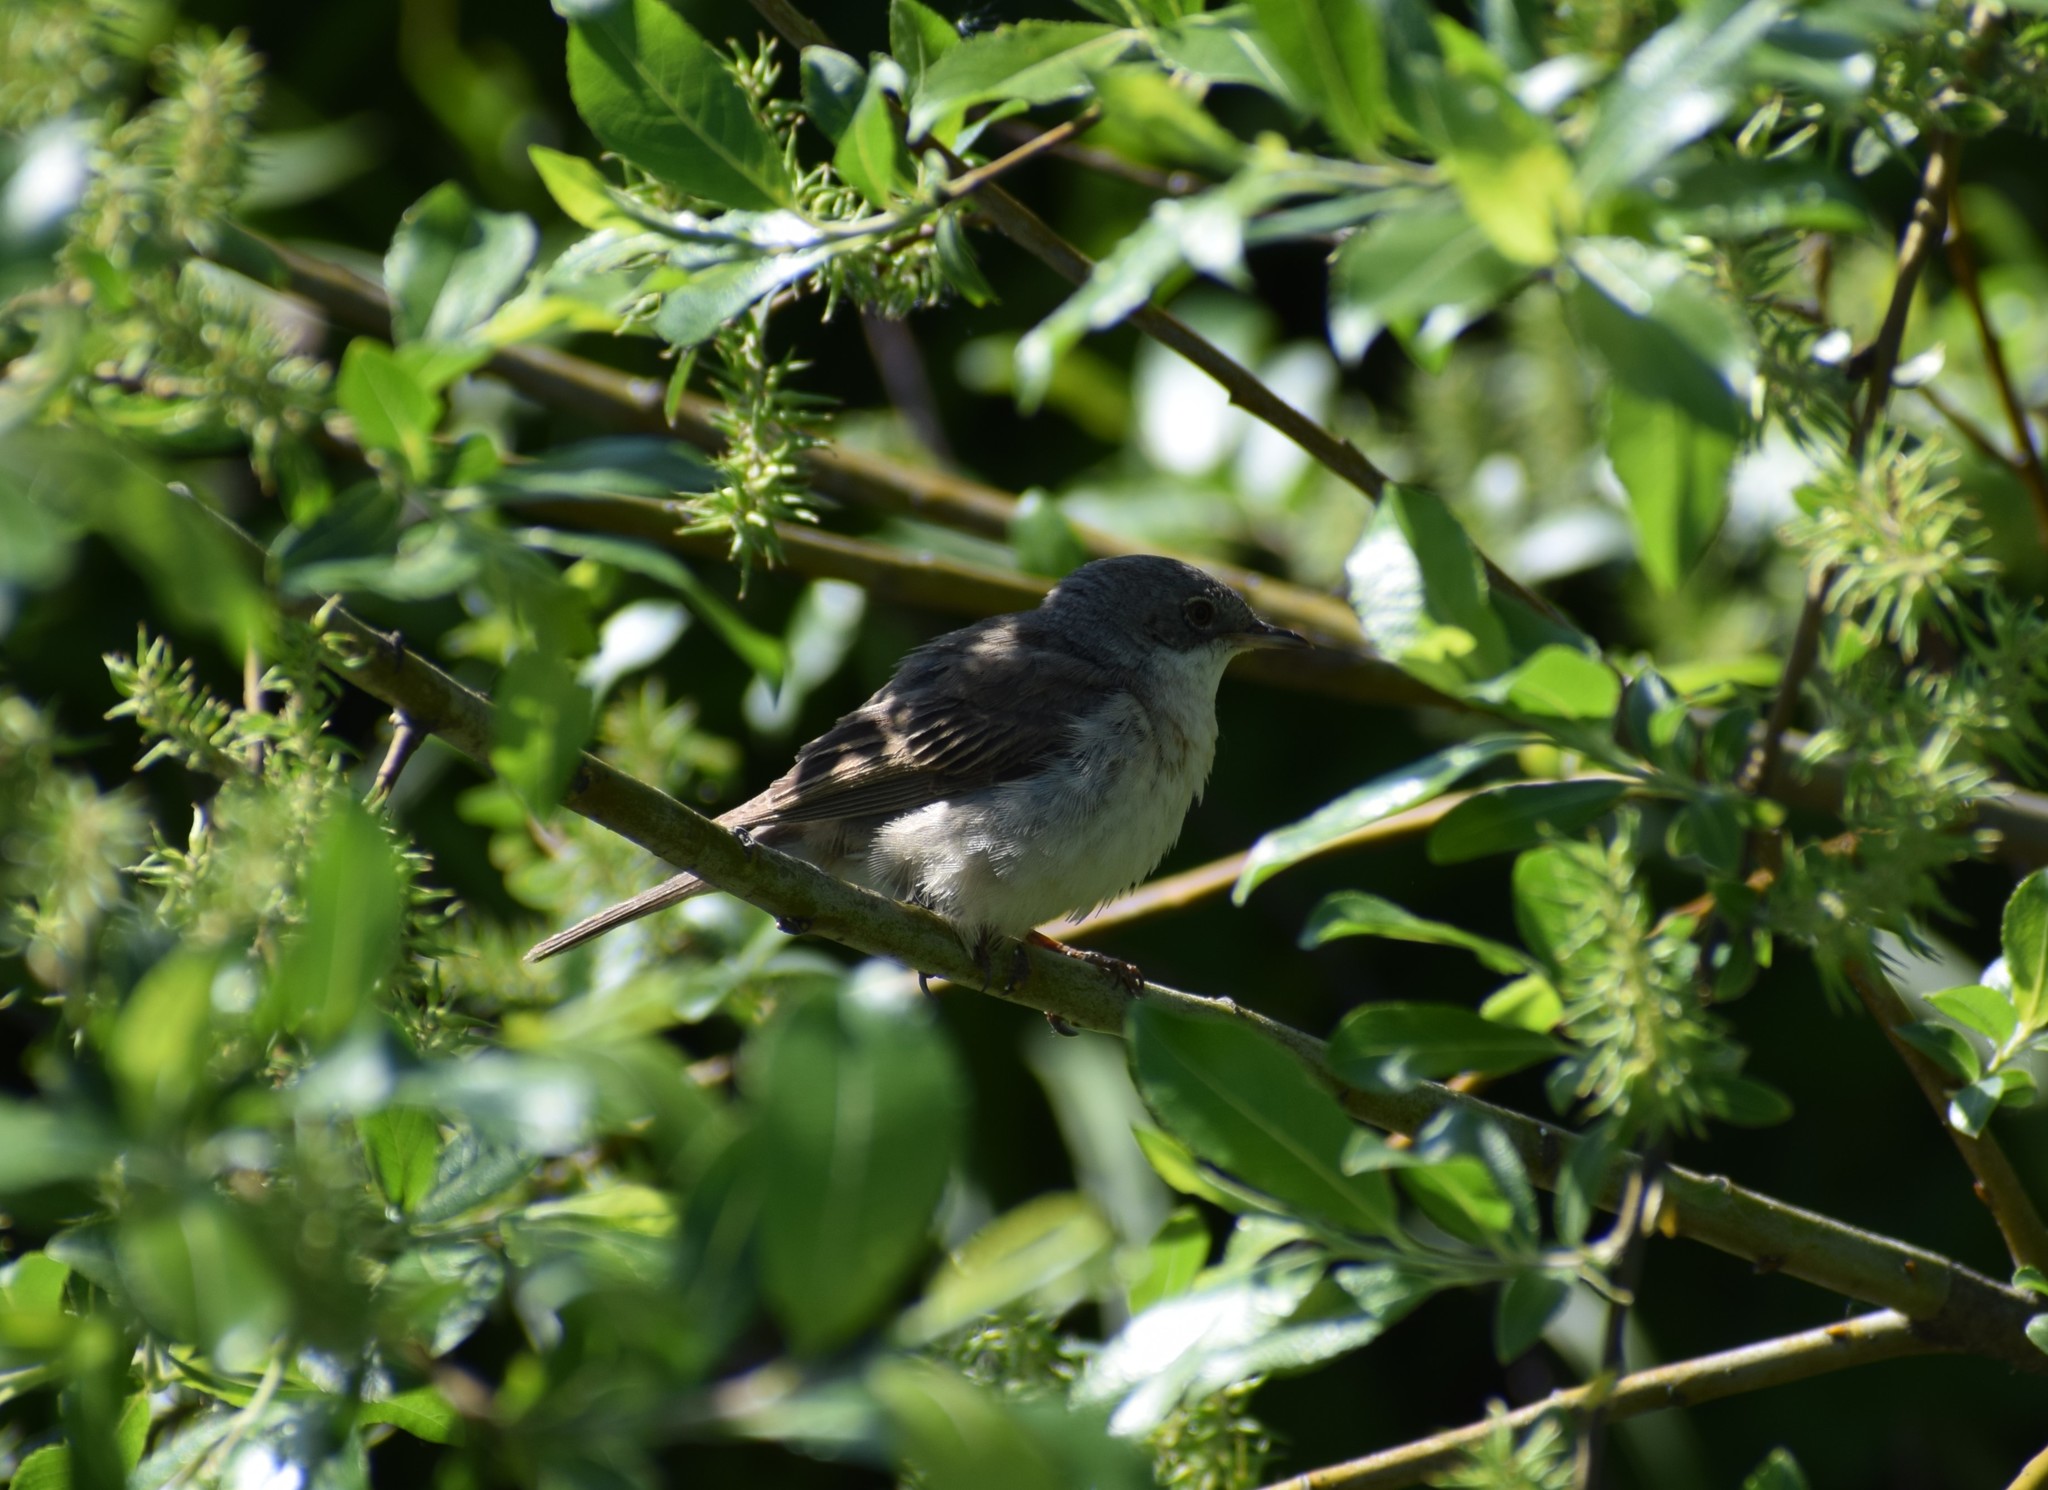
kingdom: Animalia
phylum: Chordata
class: Aves
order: Passeriformes
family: Sylviidae
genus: Sylvia
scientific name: Sylvia communis
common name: Common whitethroat
